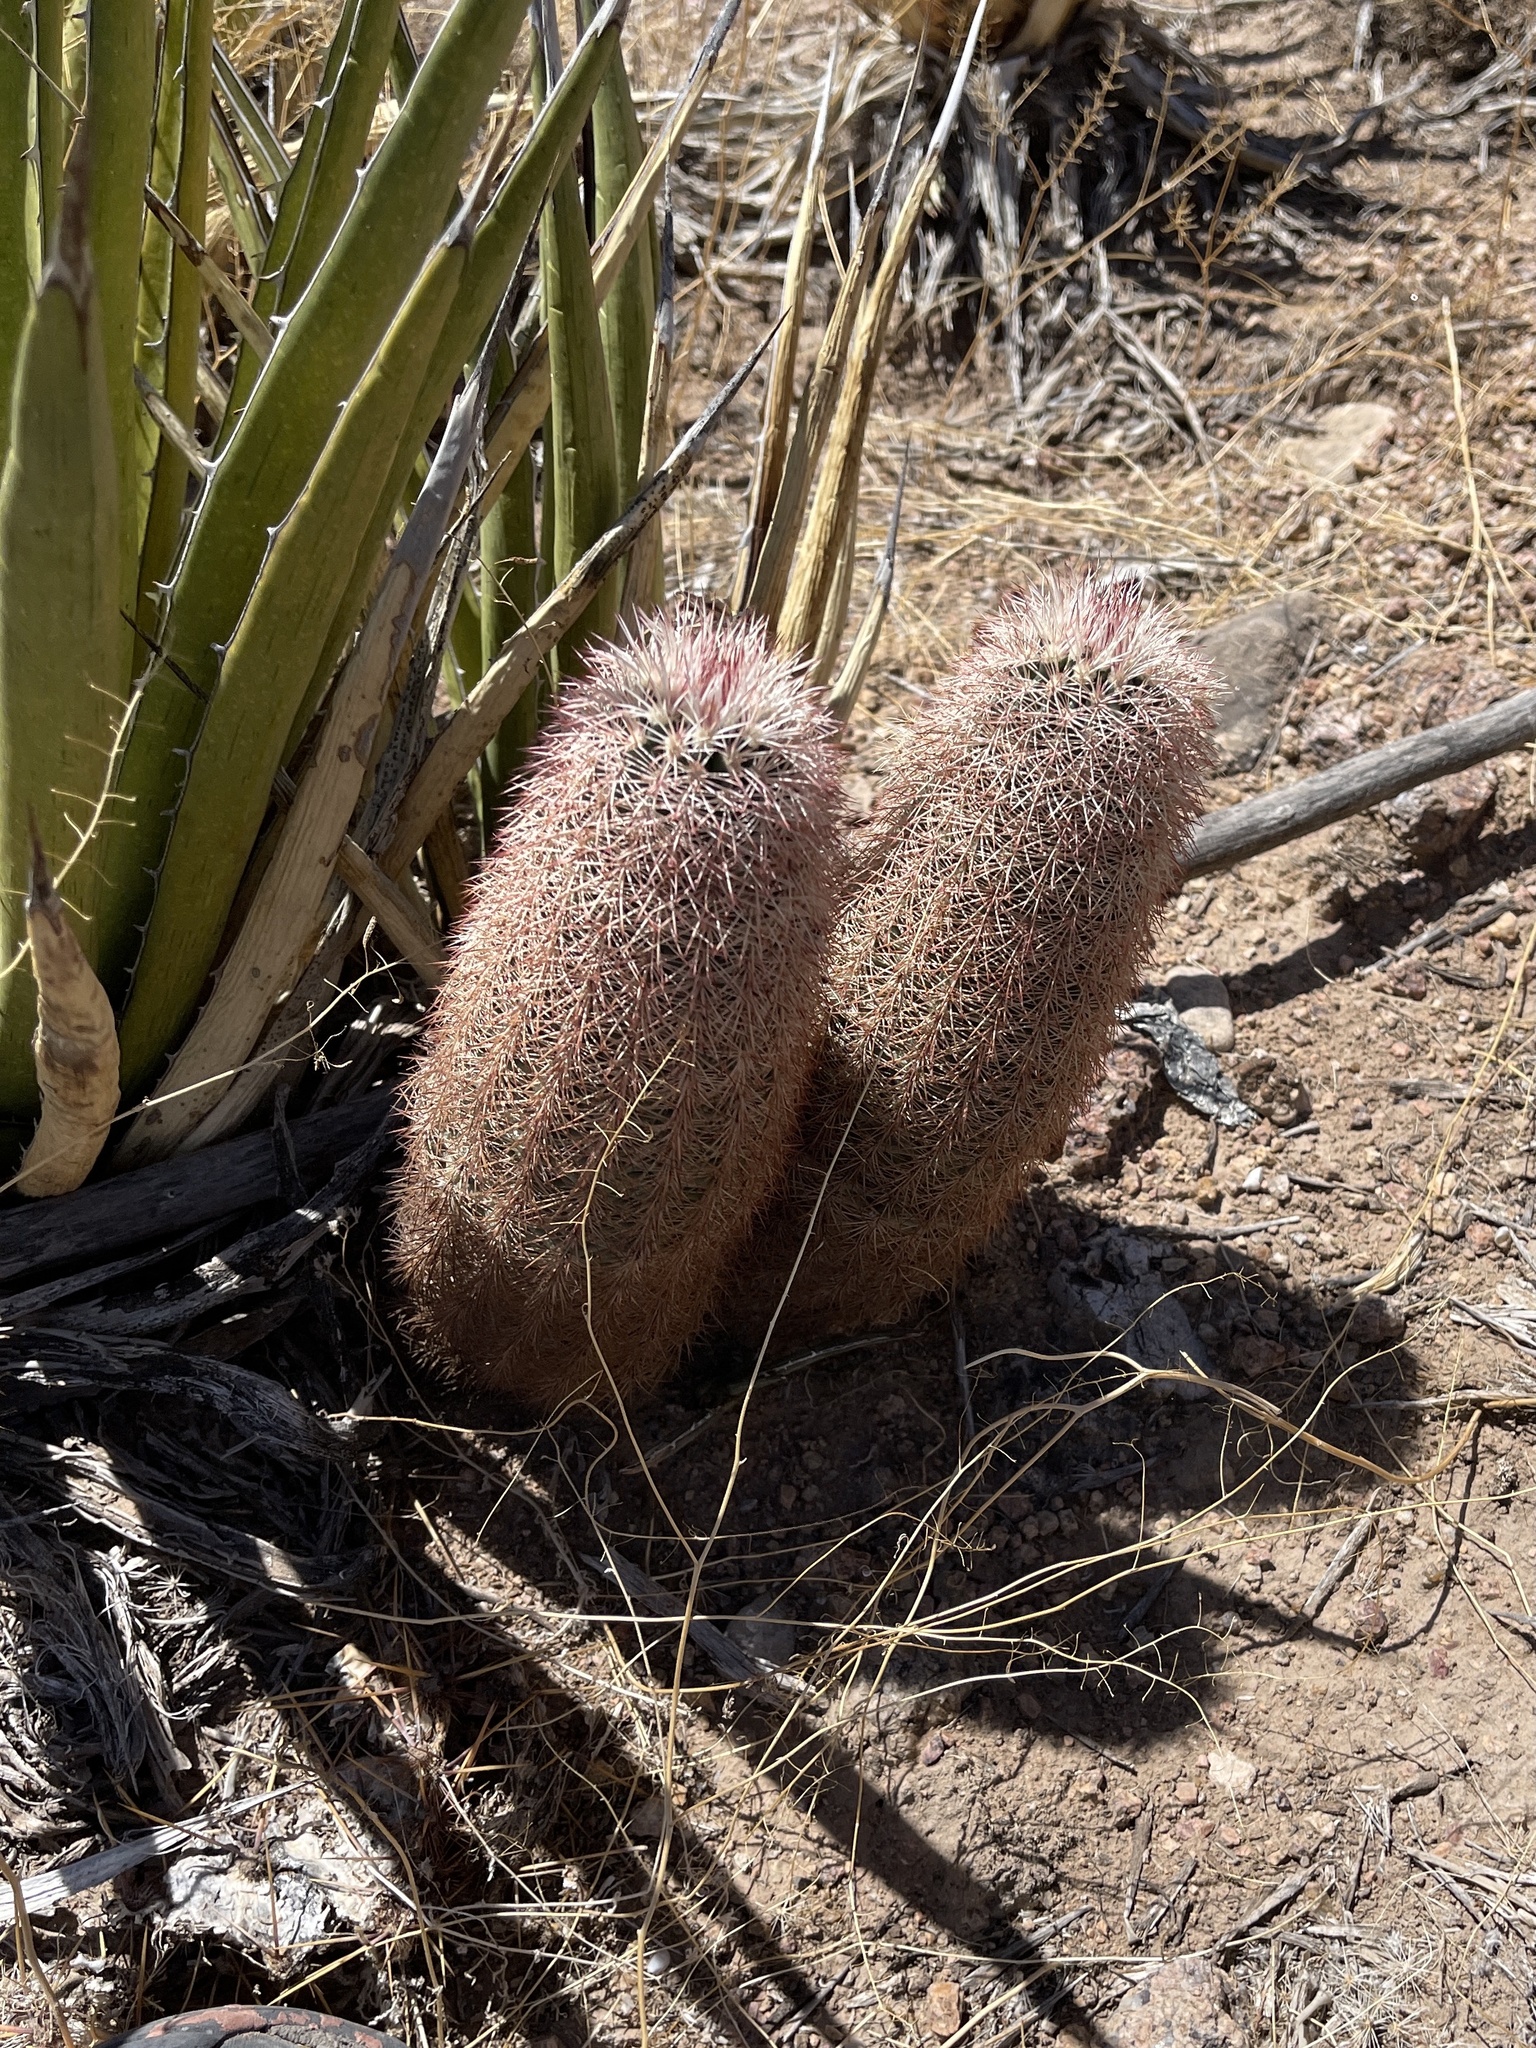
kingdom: Plantae
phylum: Tracheophyta
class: Magnoliopsida
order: Caryophyllales
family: Cactaceae
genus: Echinocereus
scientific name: Echinocereus dasyacanthus
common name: Spiny hedgehog cactus
